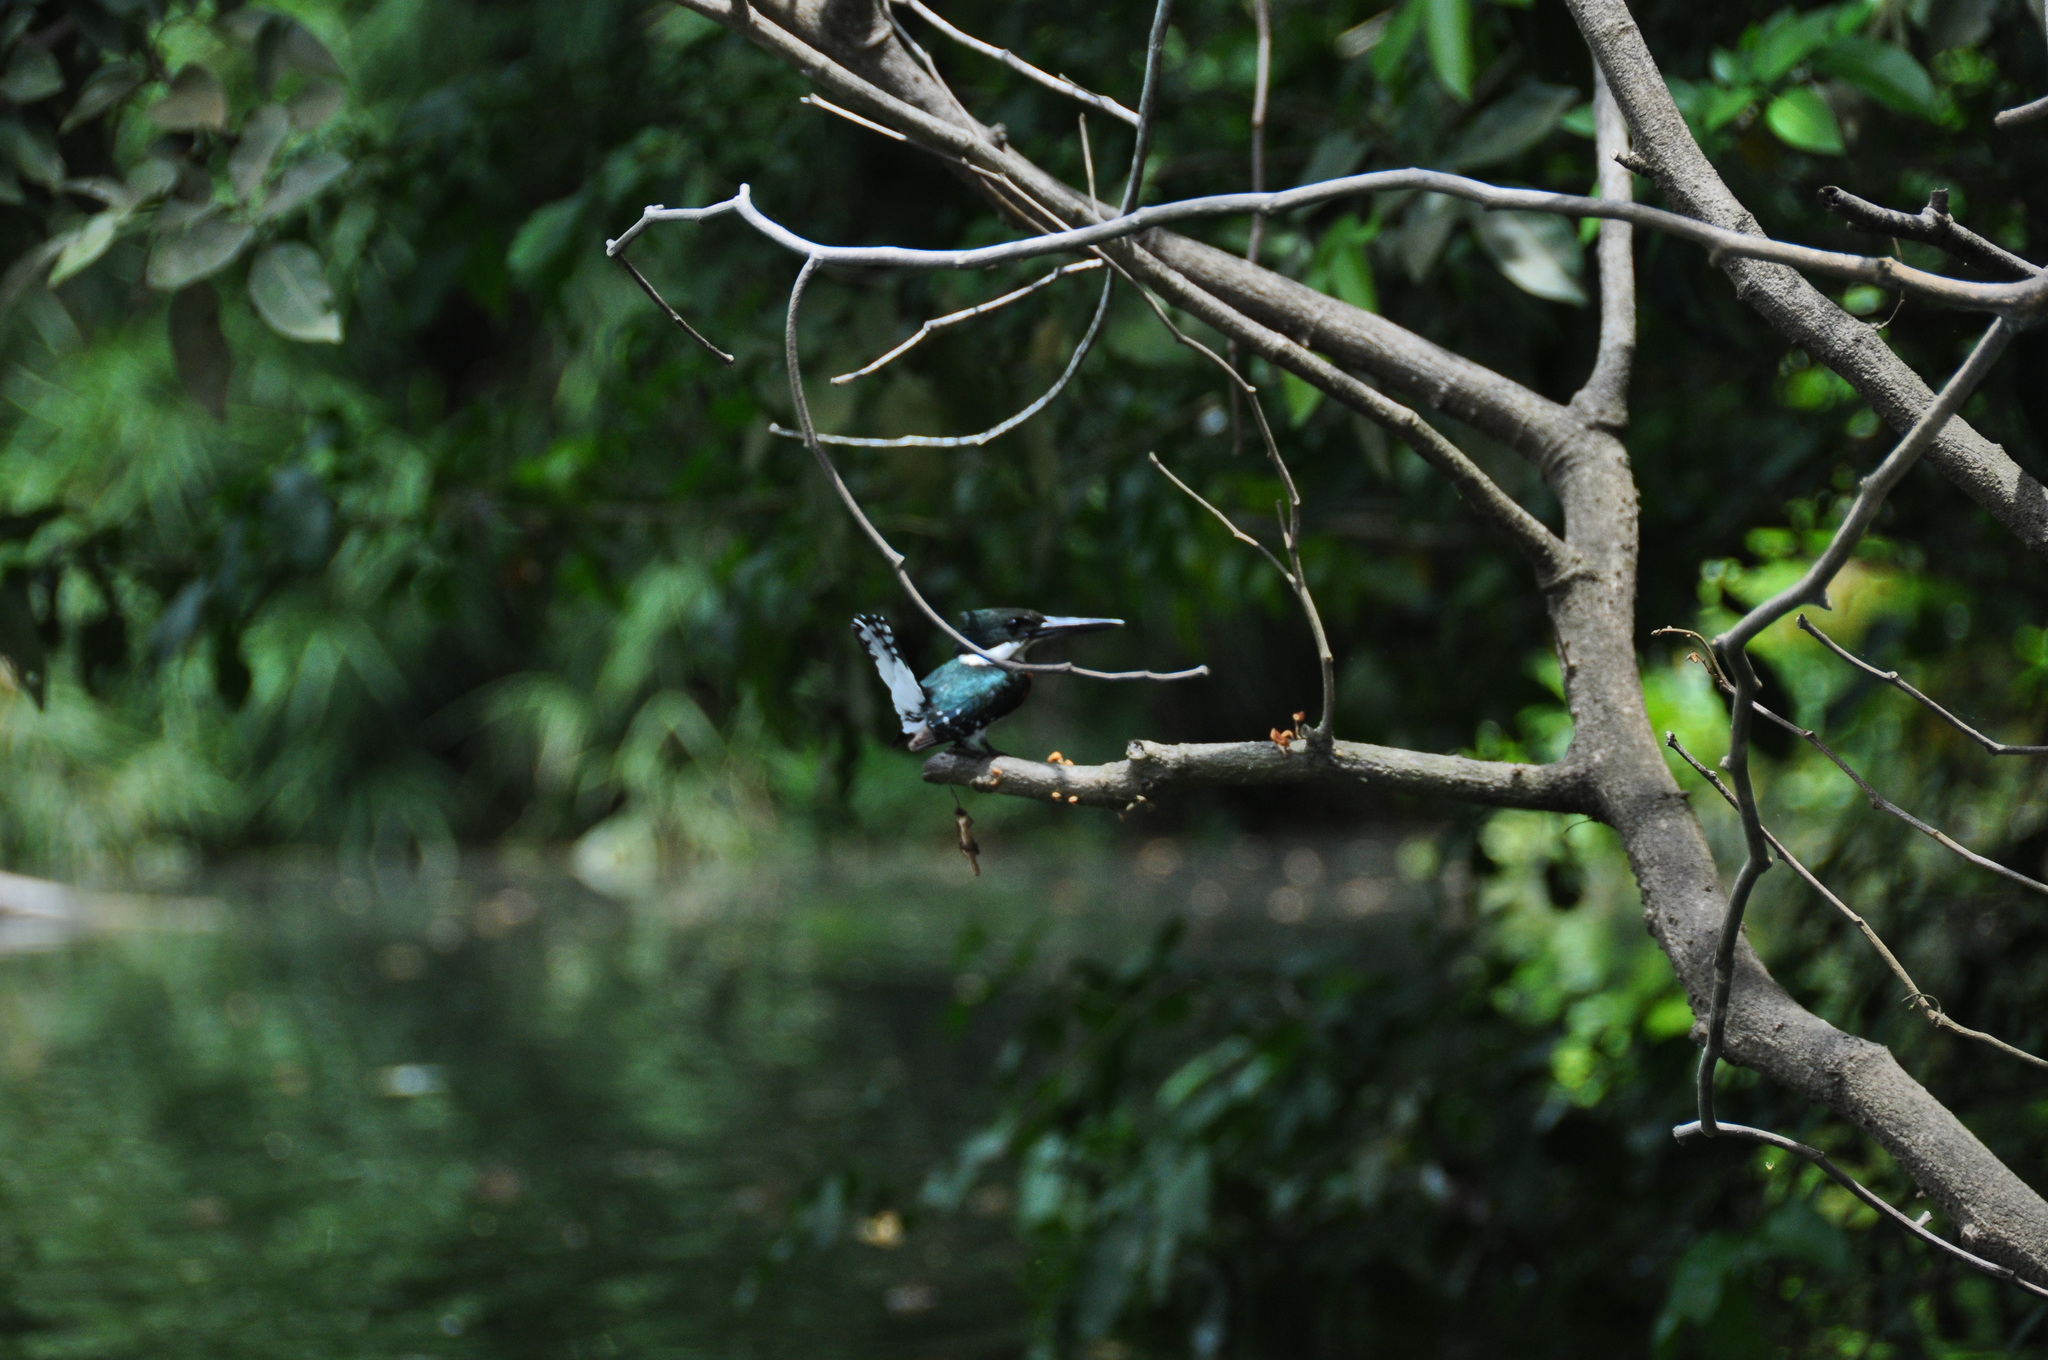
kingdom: Animalia
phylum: Chordata
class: Aves
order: Coraciiformes
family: Alcedinidae
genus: Chloroceryle
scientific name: Chloroceryle americana
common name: Green kingfisher
